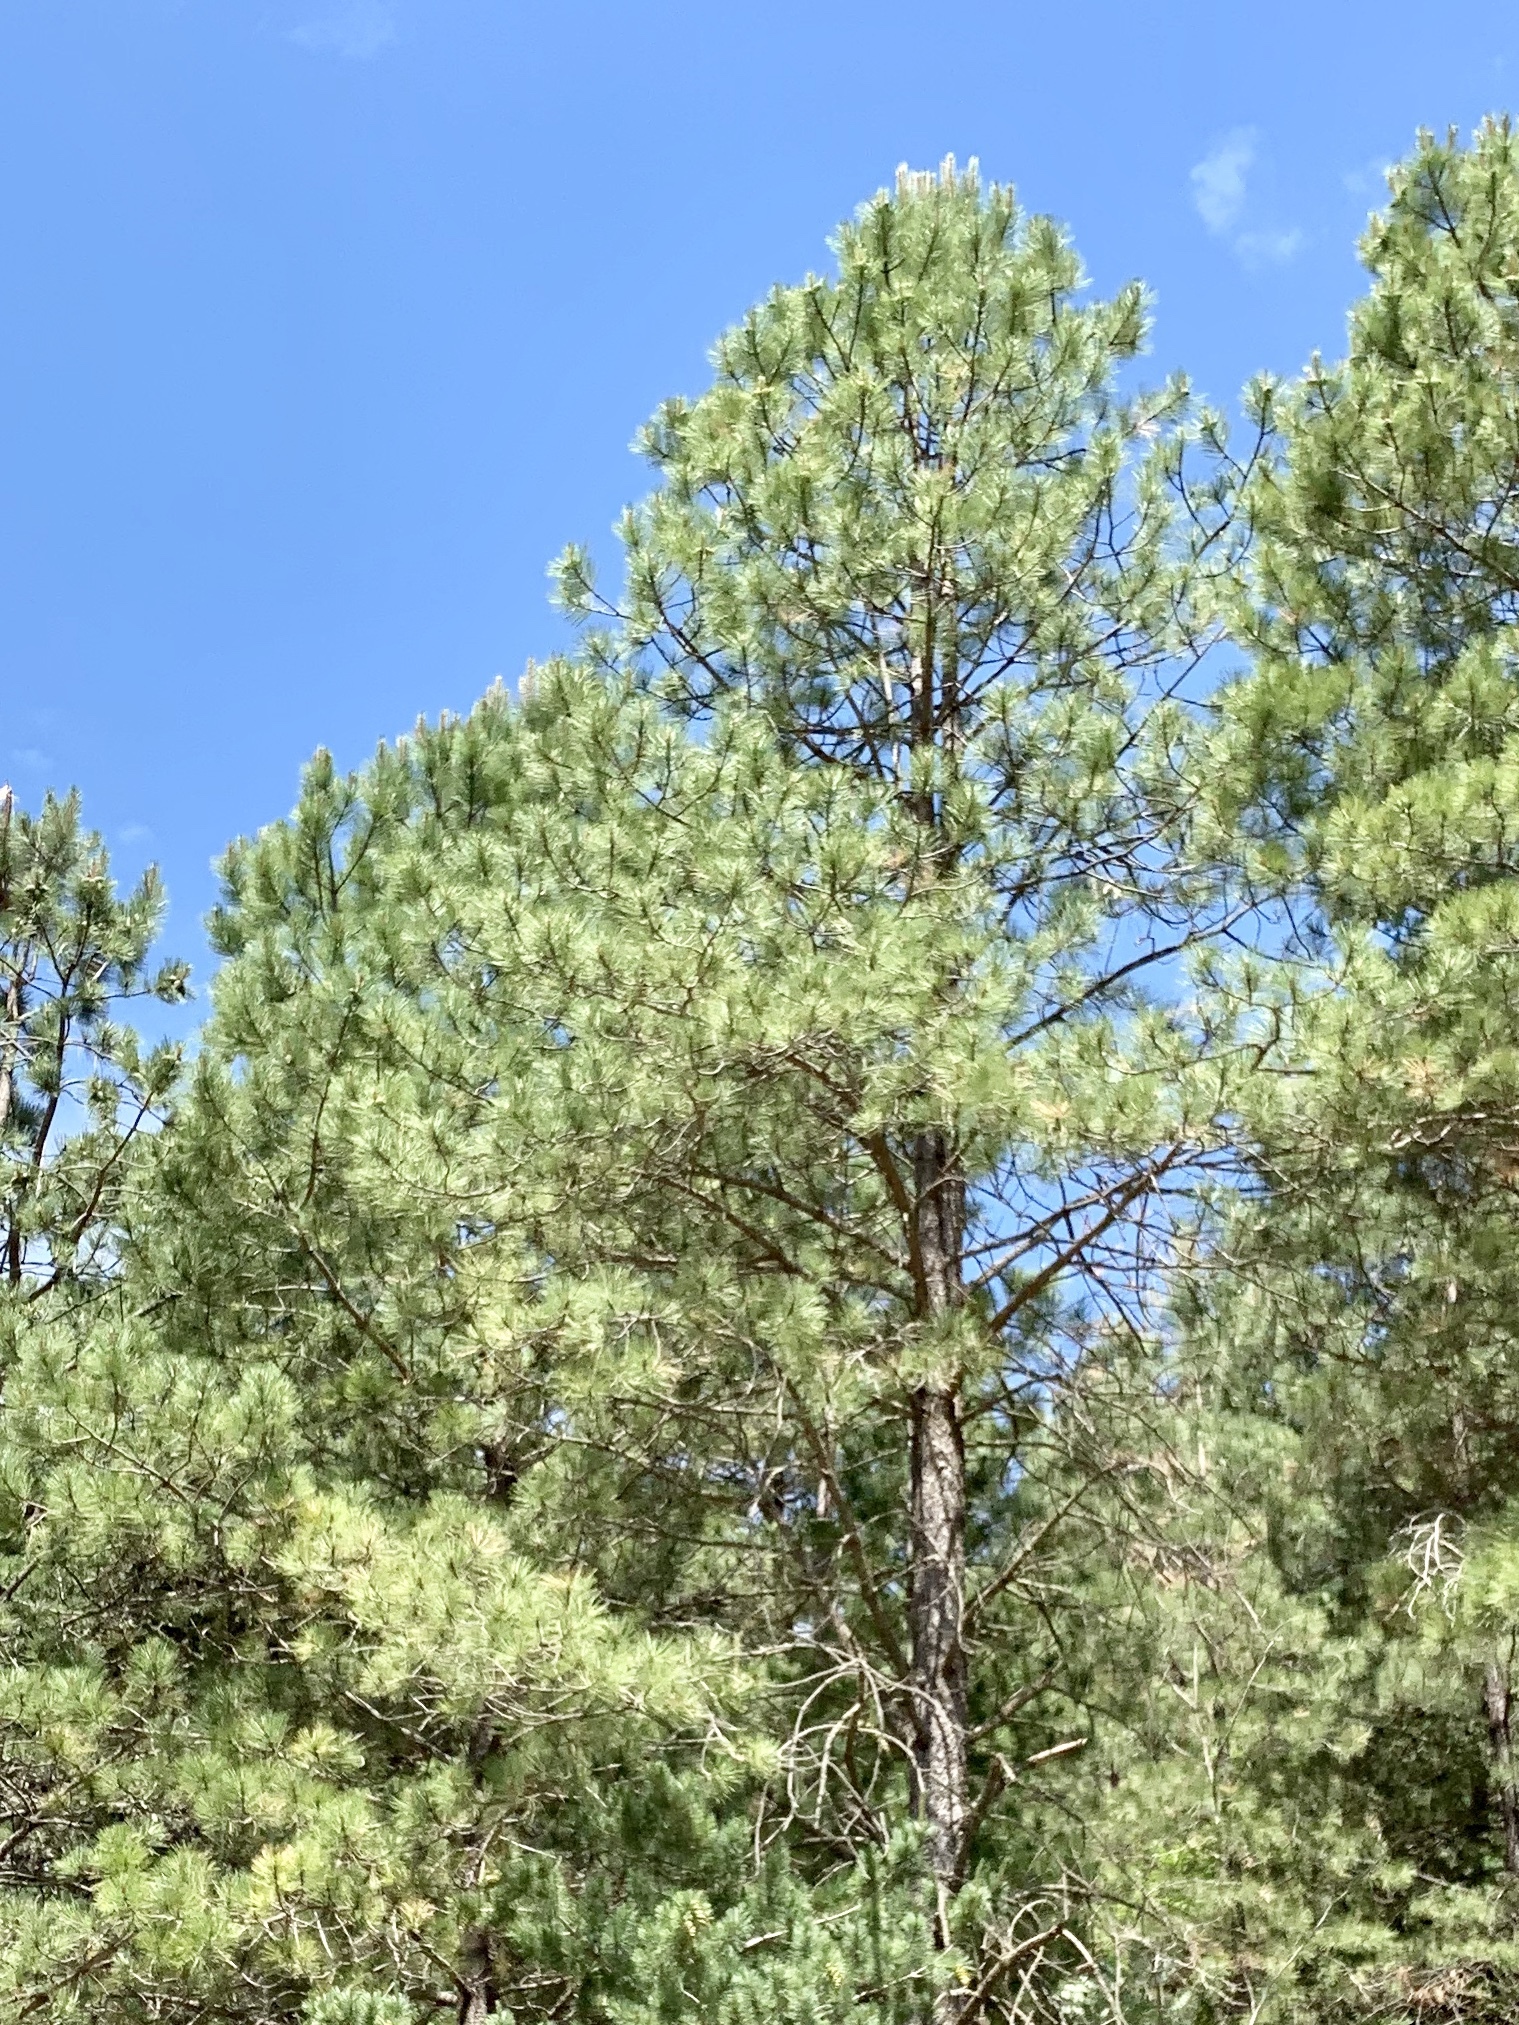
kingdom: Plantae
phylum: Tracheophyta
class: Pinopsida
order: Pinales
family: Pinaceae
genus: Pinus
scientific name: Pinus ponderosa
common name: Western yellow-pine
